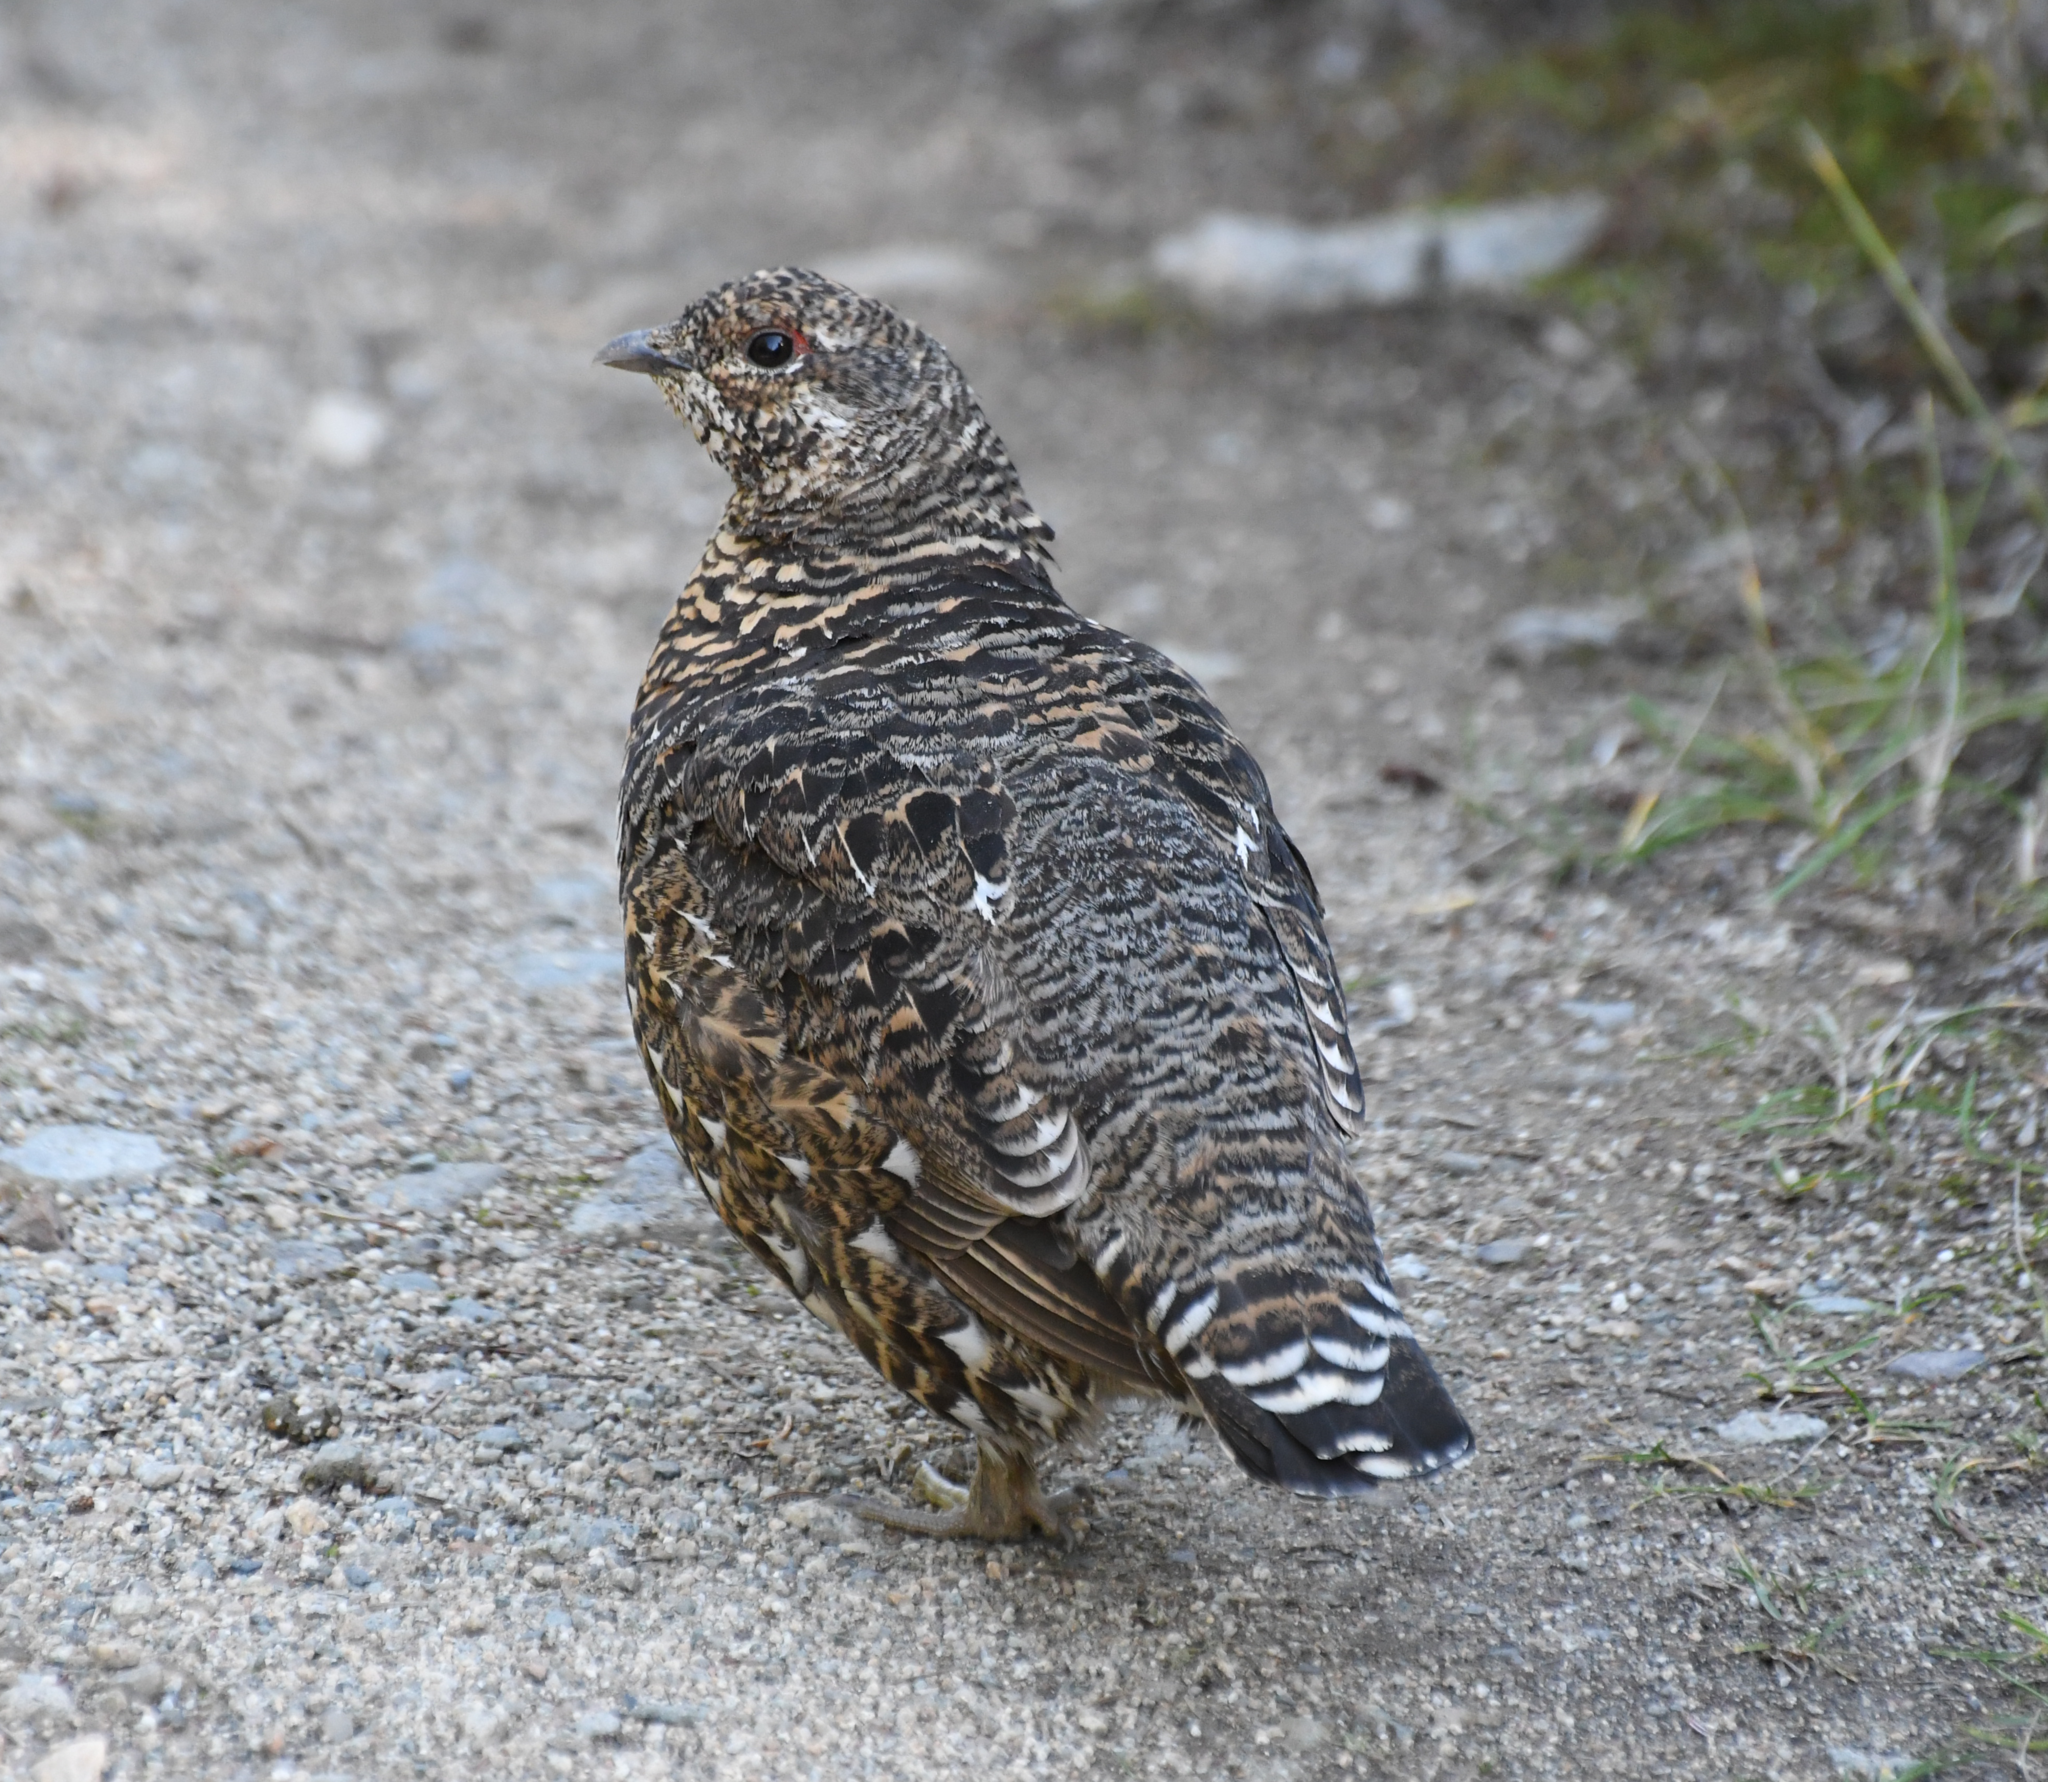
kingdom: Animalia
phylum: Chordata
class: Aves
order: Galliformes
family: Phasianidae
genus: Canachites
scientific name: Canachites canadensis
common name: Spruce grouse
